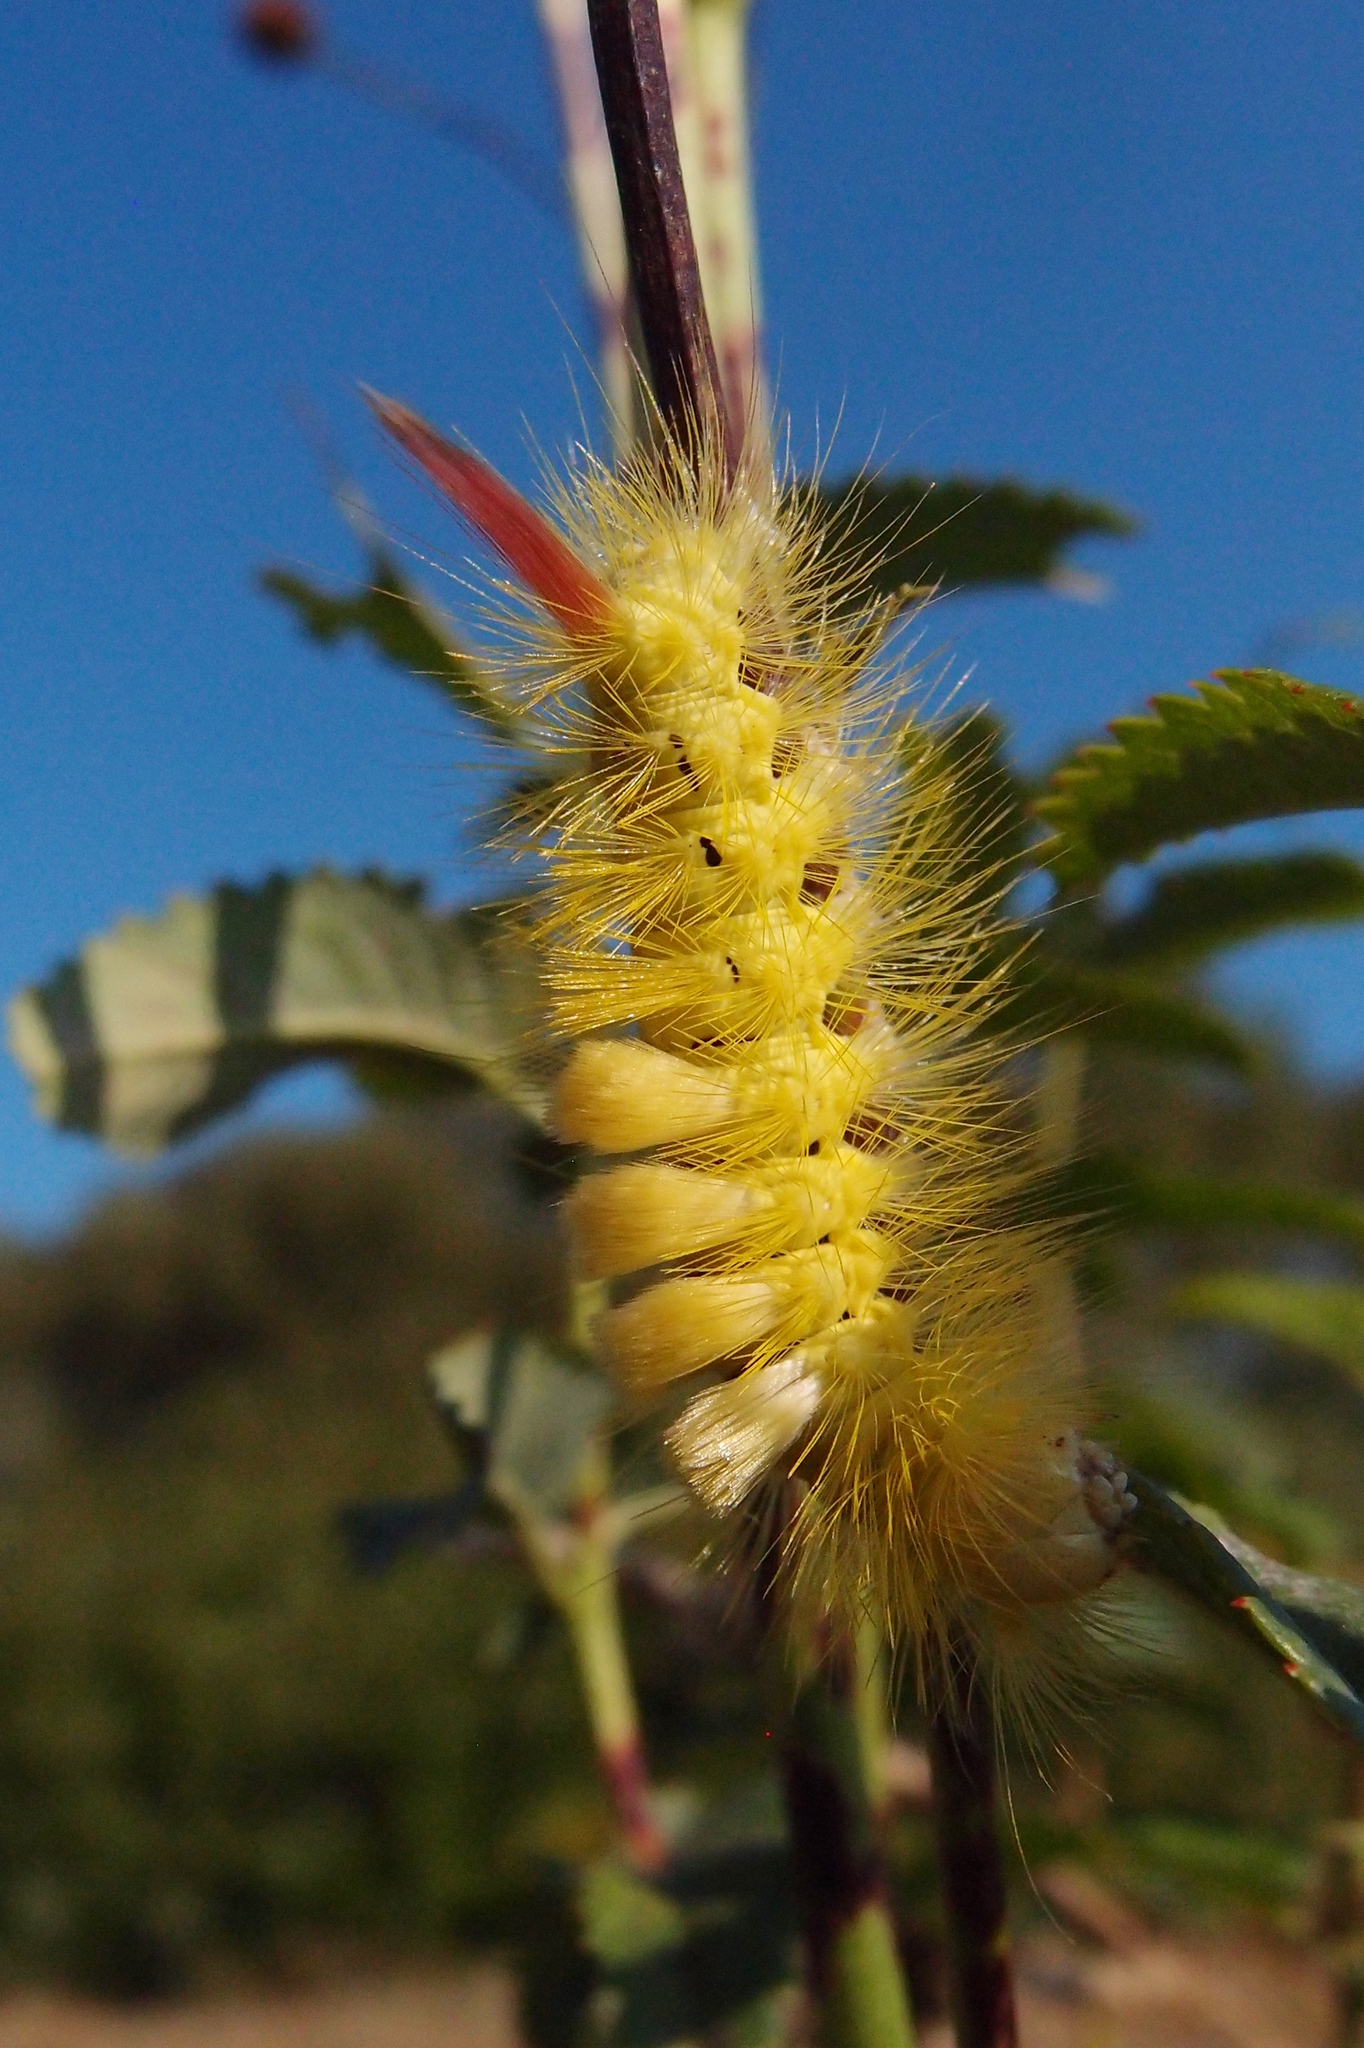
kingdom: Animalia
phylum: Arthropoda
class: Insecta
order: Lepidoptera
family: Erebidae
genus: Calliteara
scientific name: Calliteara pudibunda
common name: Pale tussock
